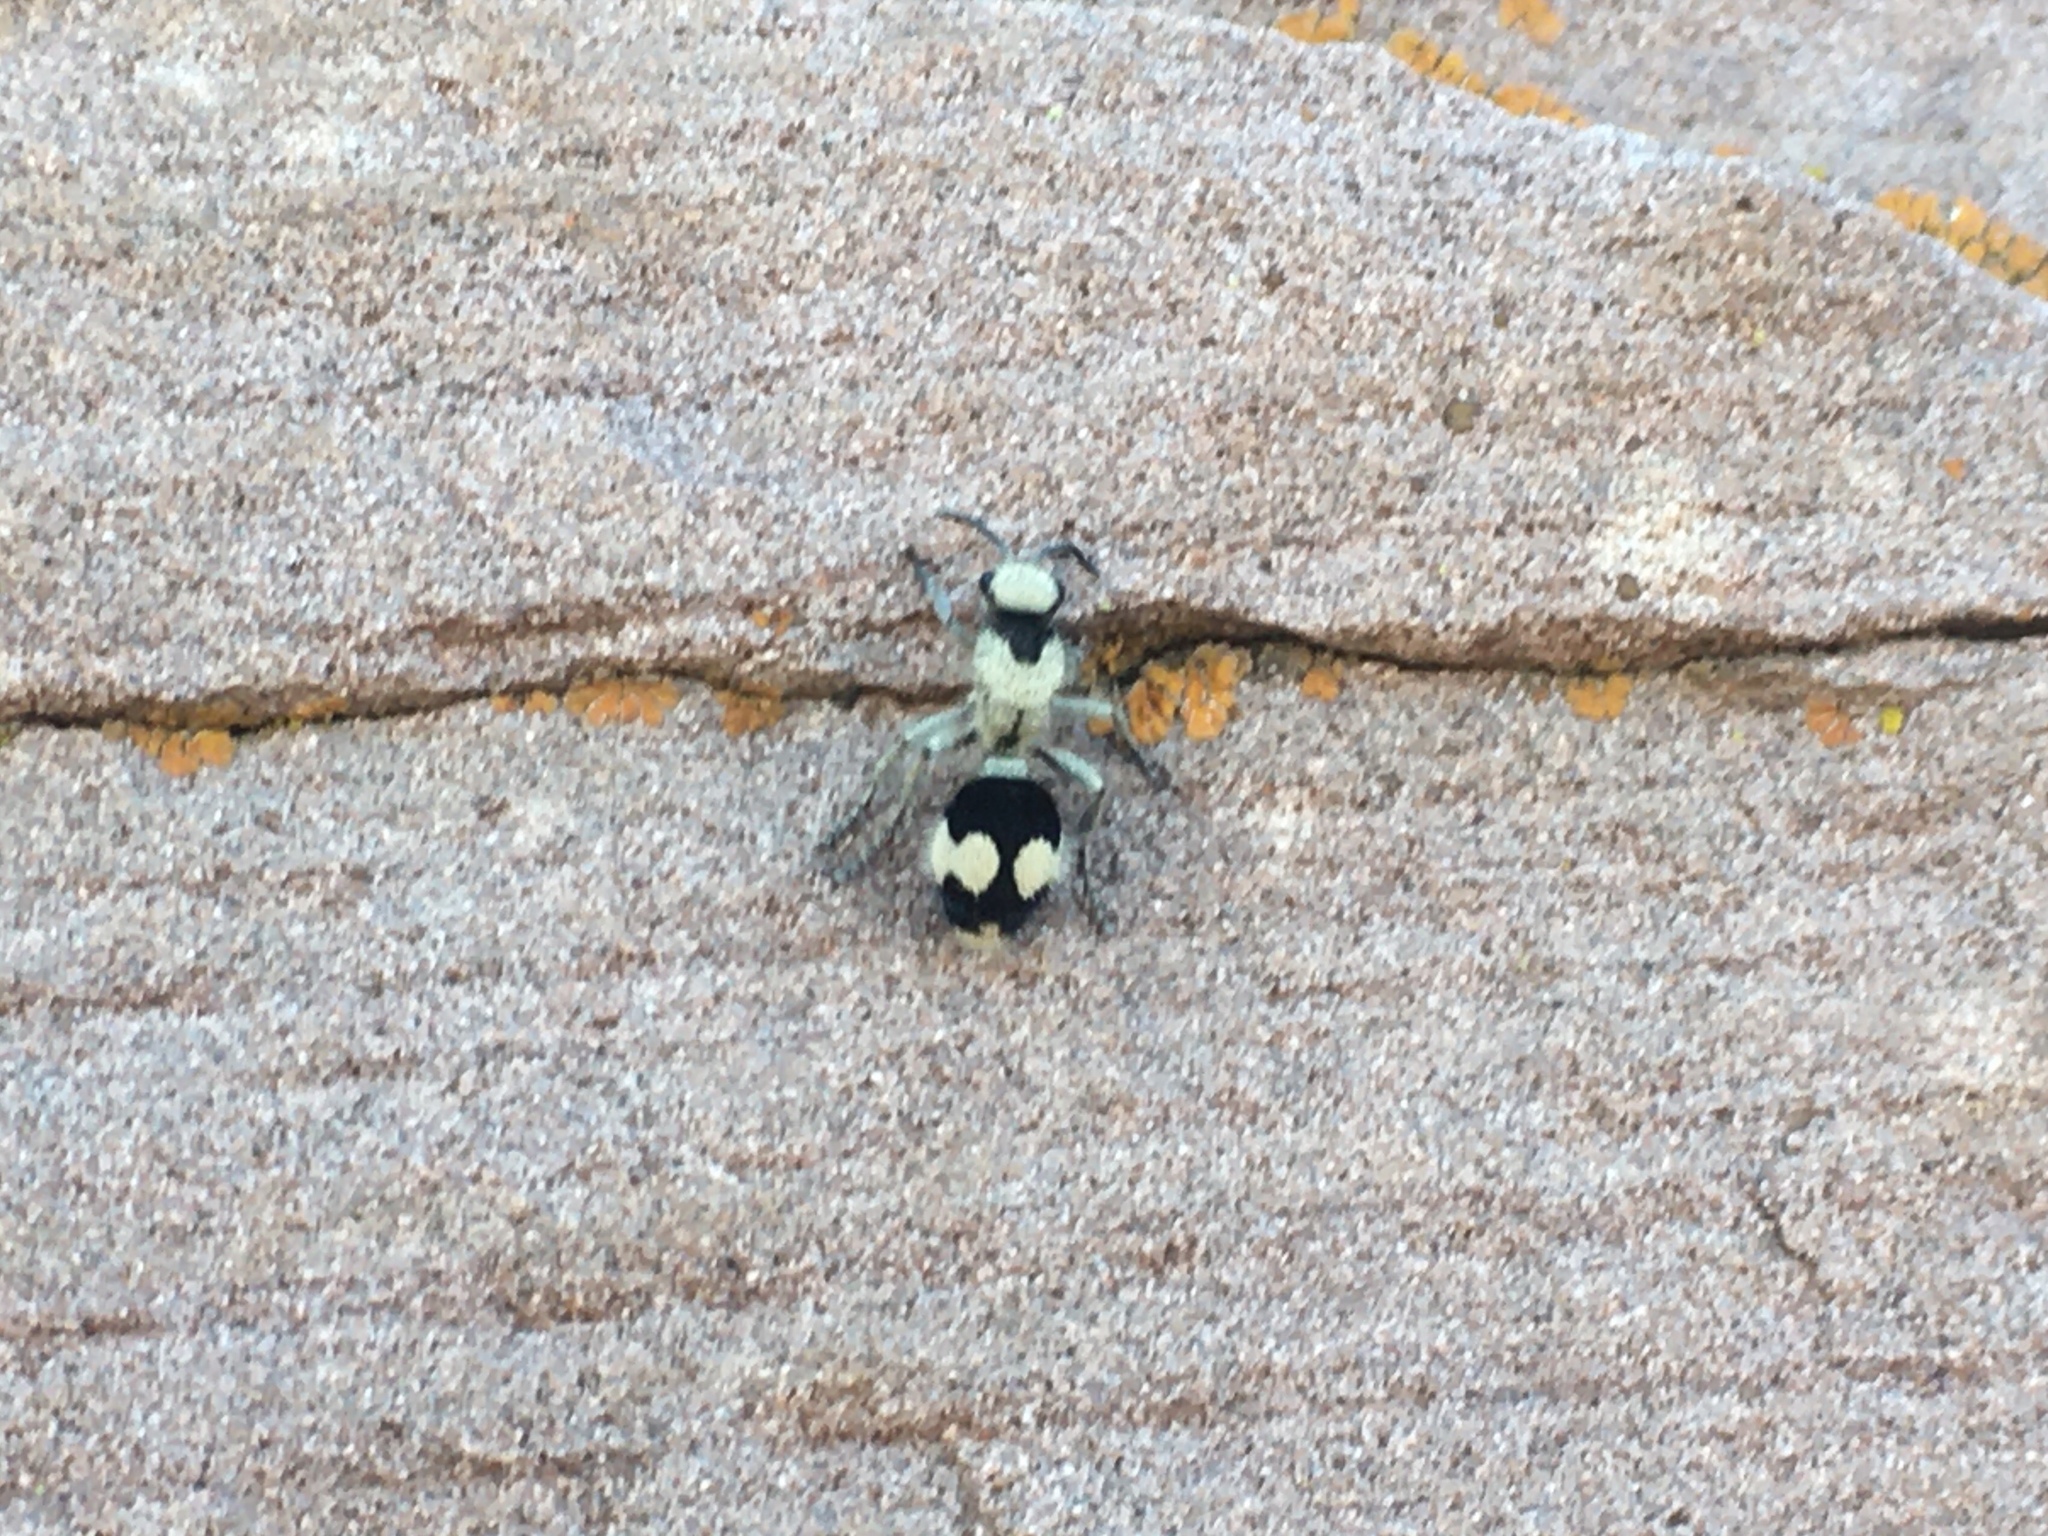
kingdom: Animalia
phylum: Arthropoda
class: Insecta
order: Hymenoptera
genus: Reedomutilla
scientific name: Reedomutilla
